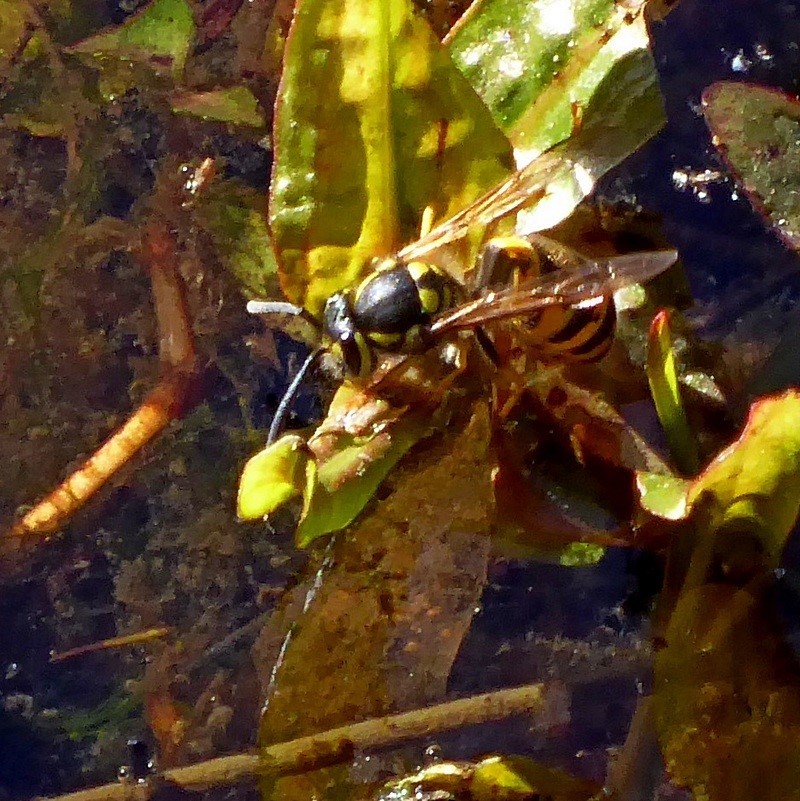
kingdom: Animalia
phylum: Arthropoda
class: Insecta
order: Hymenoptera
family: Vespidae
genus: Vespula
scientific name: Vespula germanica
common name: German wasp
